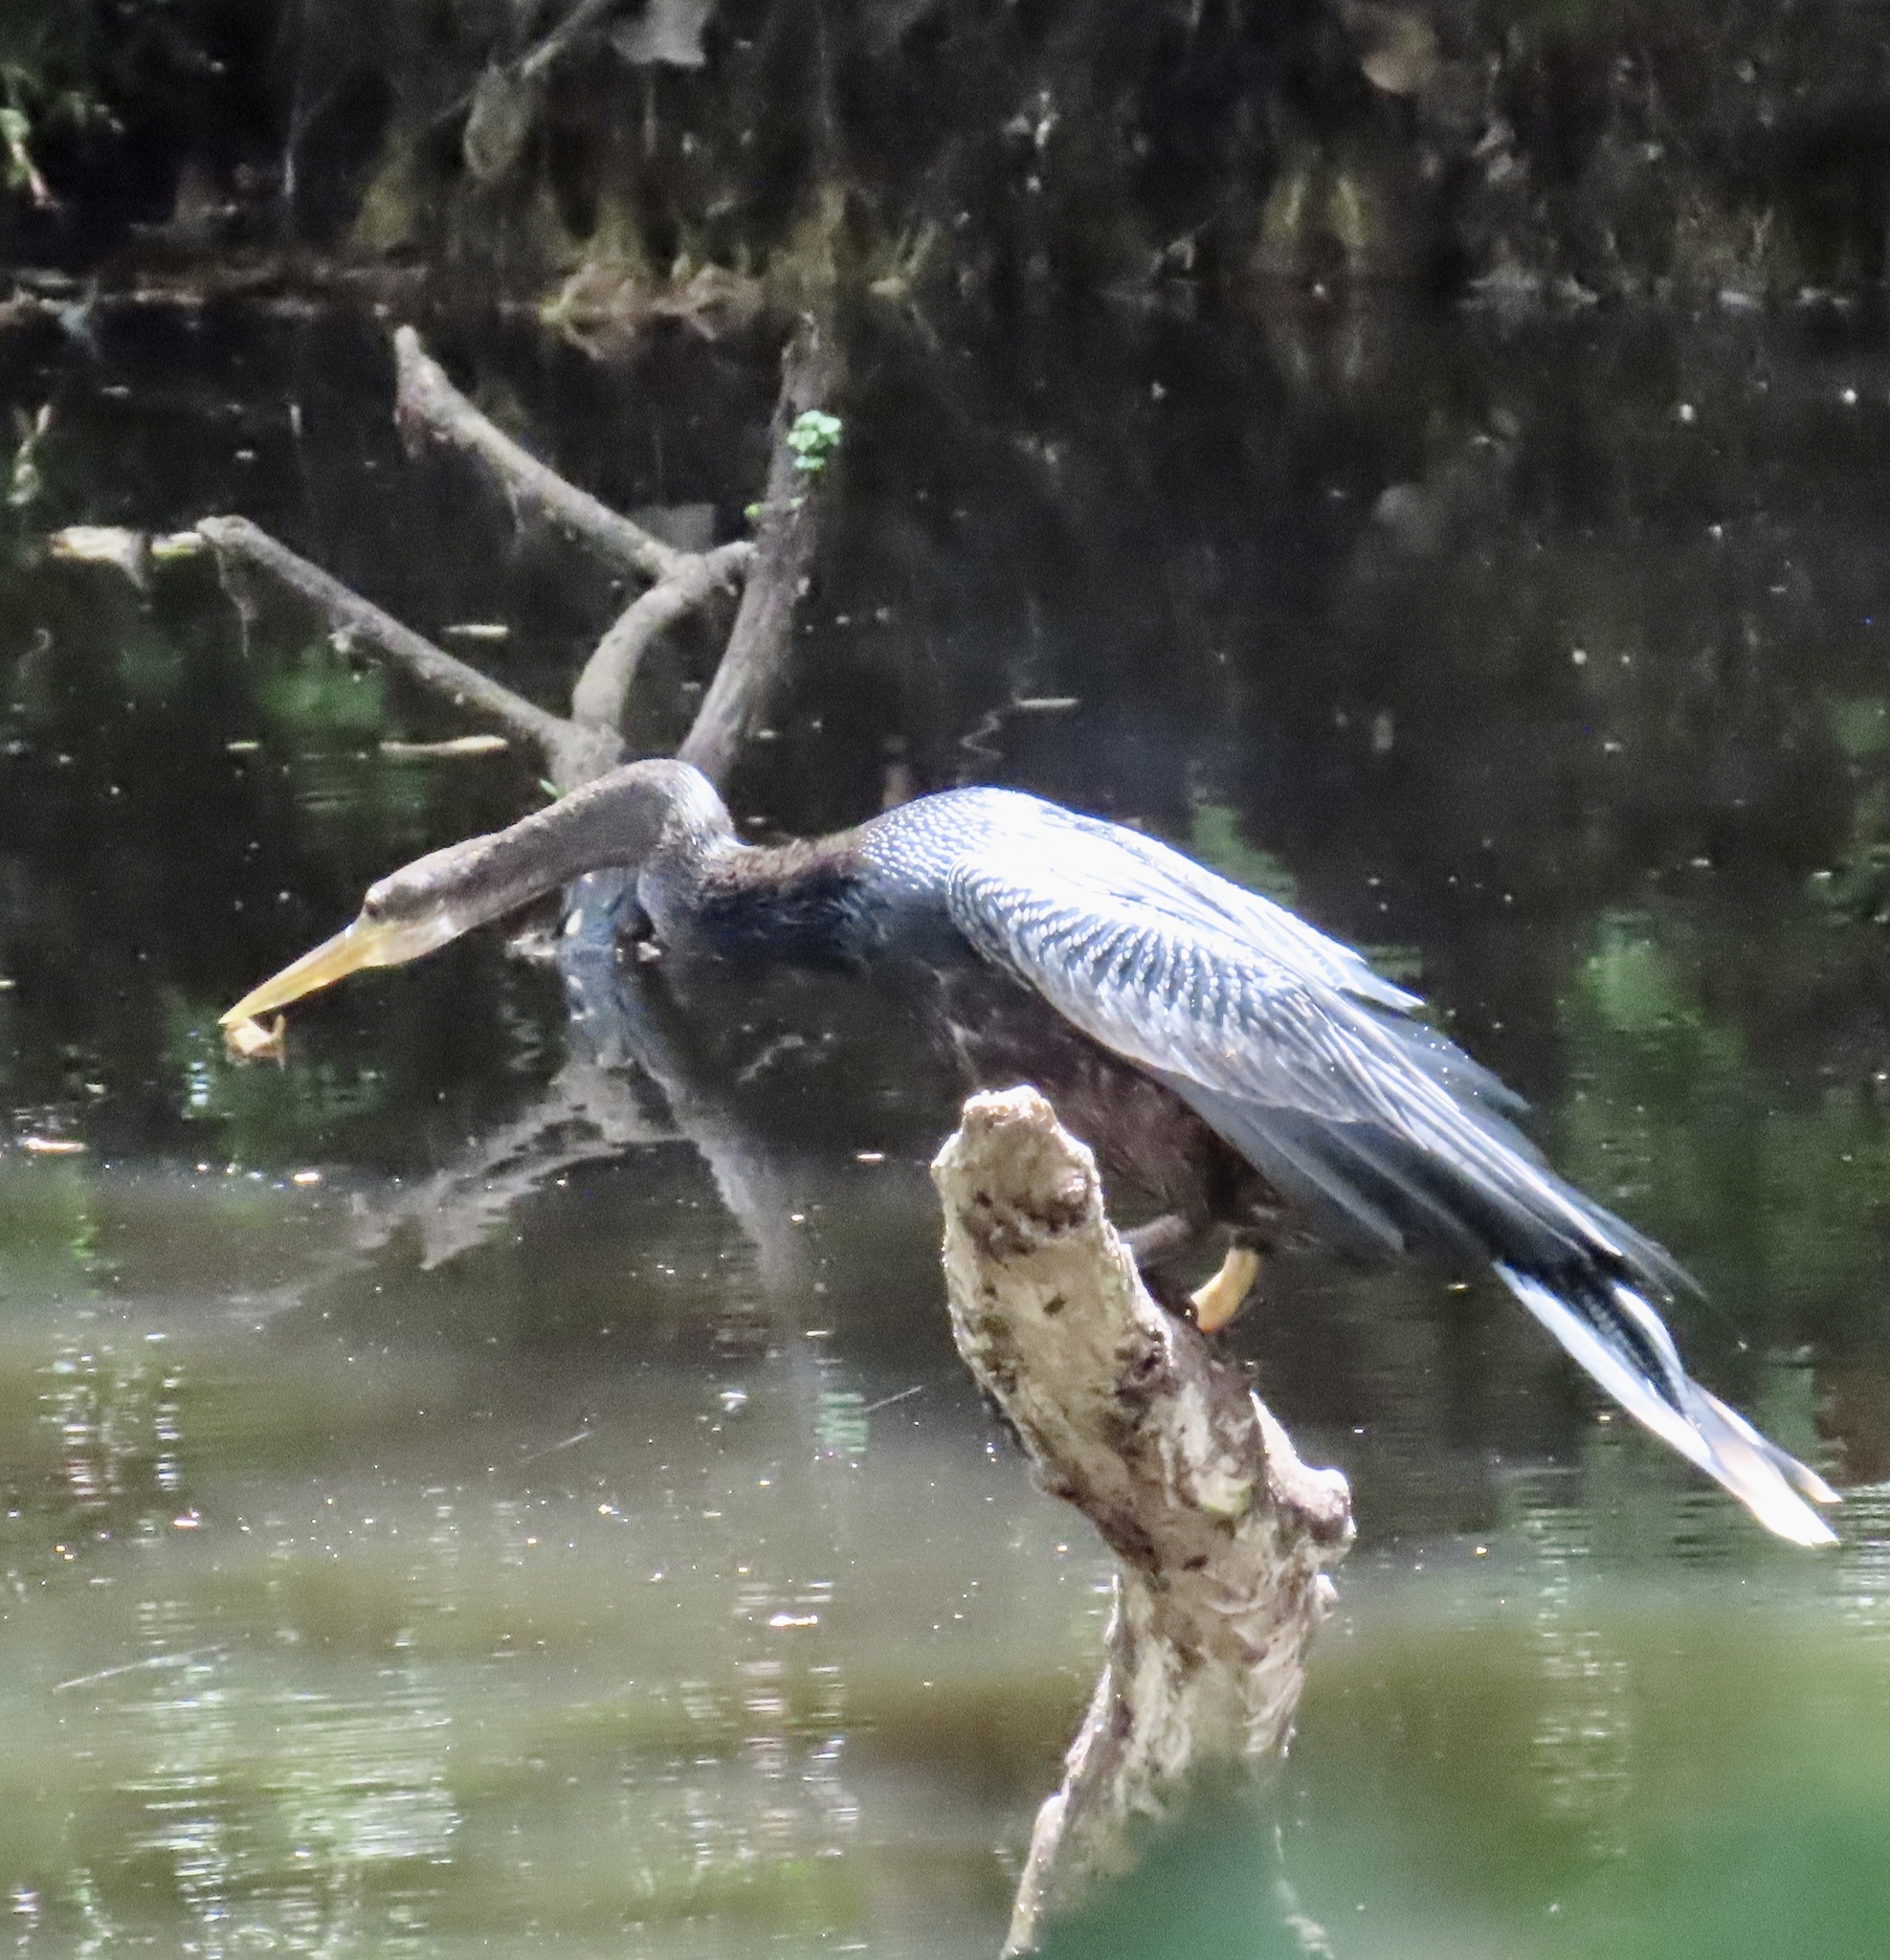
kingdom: Animalia
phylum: Chordata
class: Aves
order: Suliformes
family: Anhingidae
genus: Anhinga
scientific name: Anhinga anhinga
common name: Anhinga
